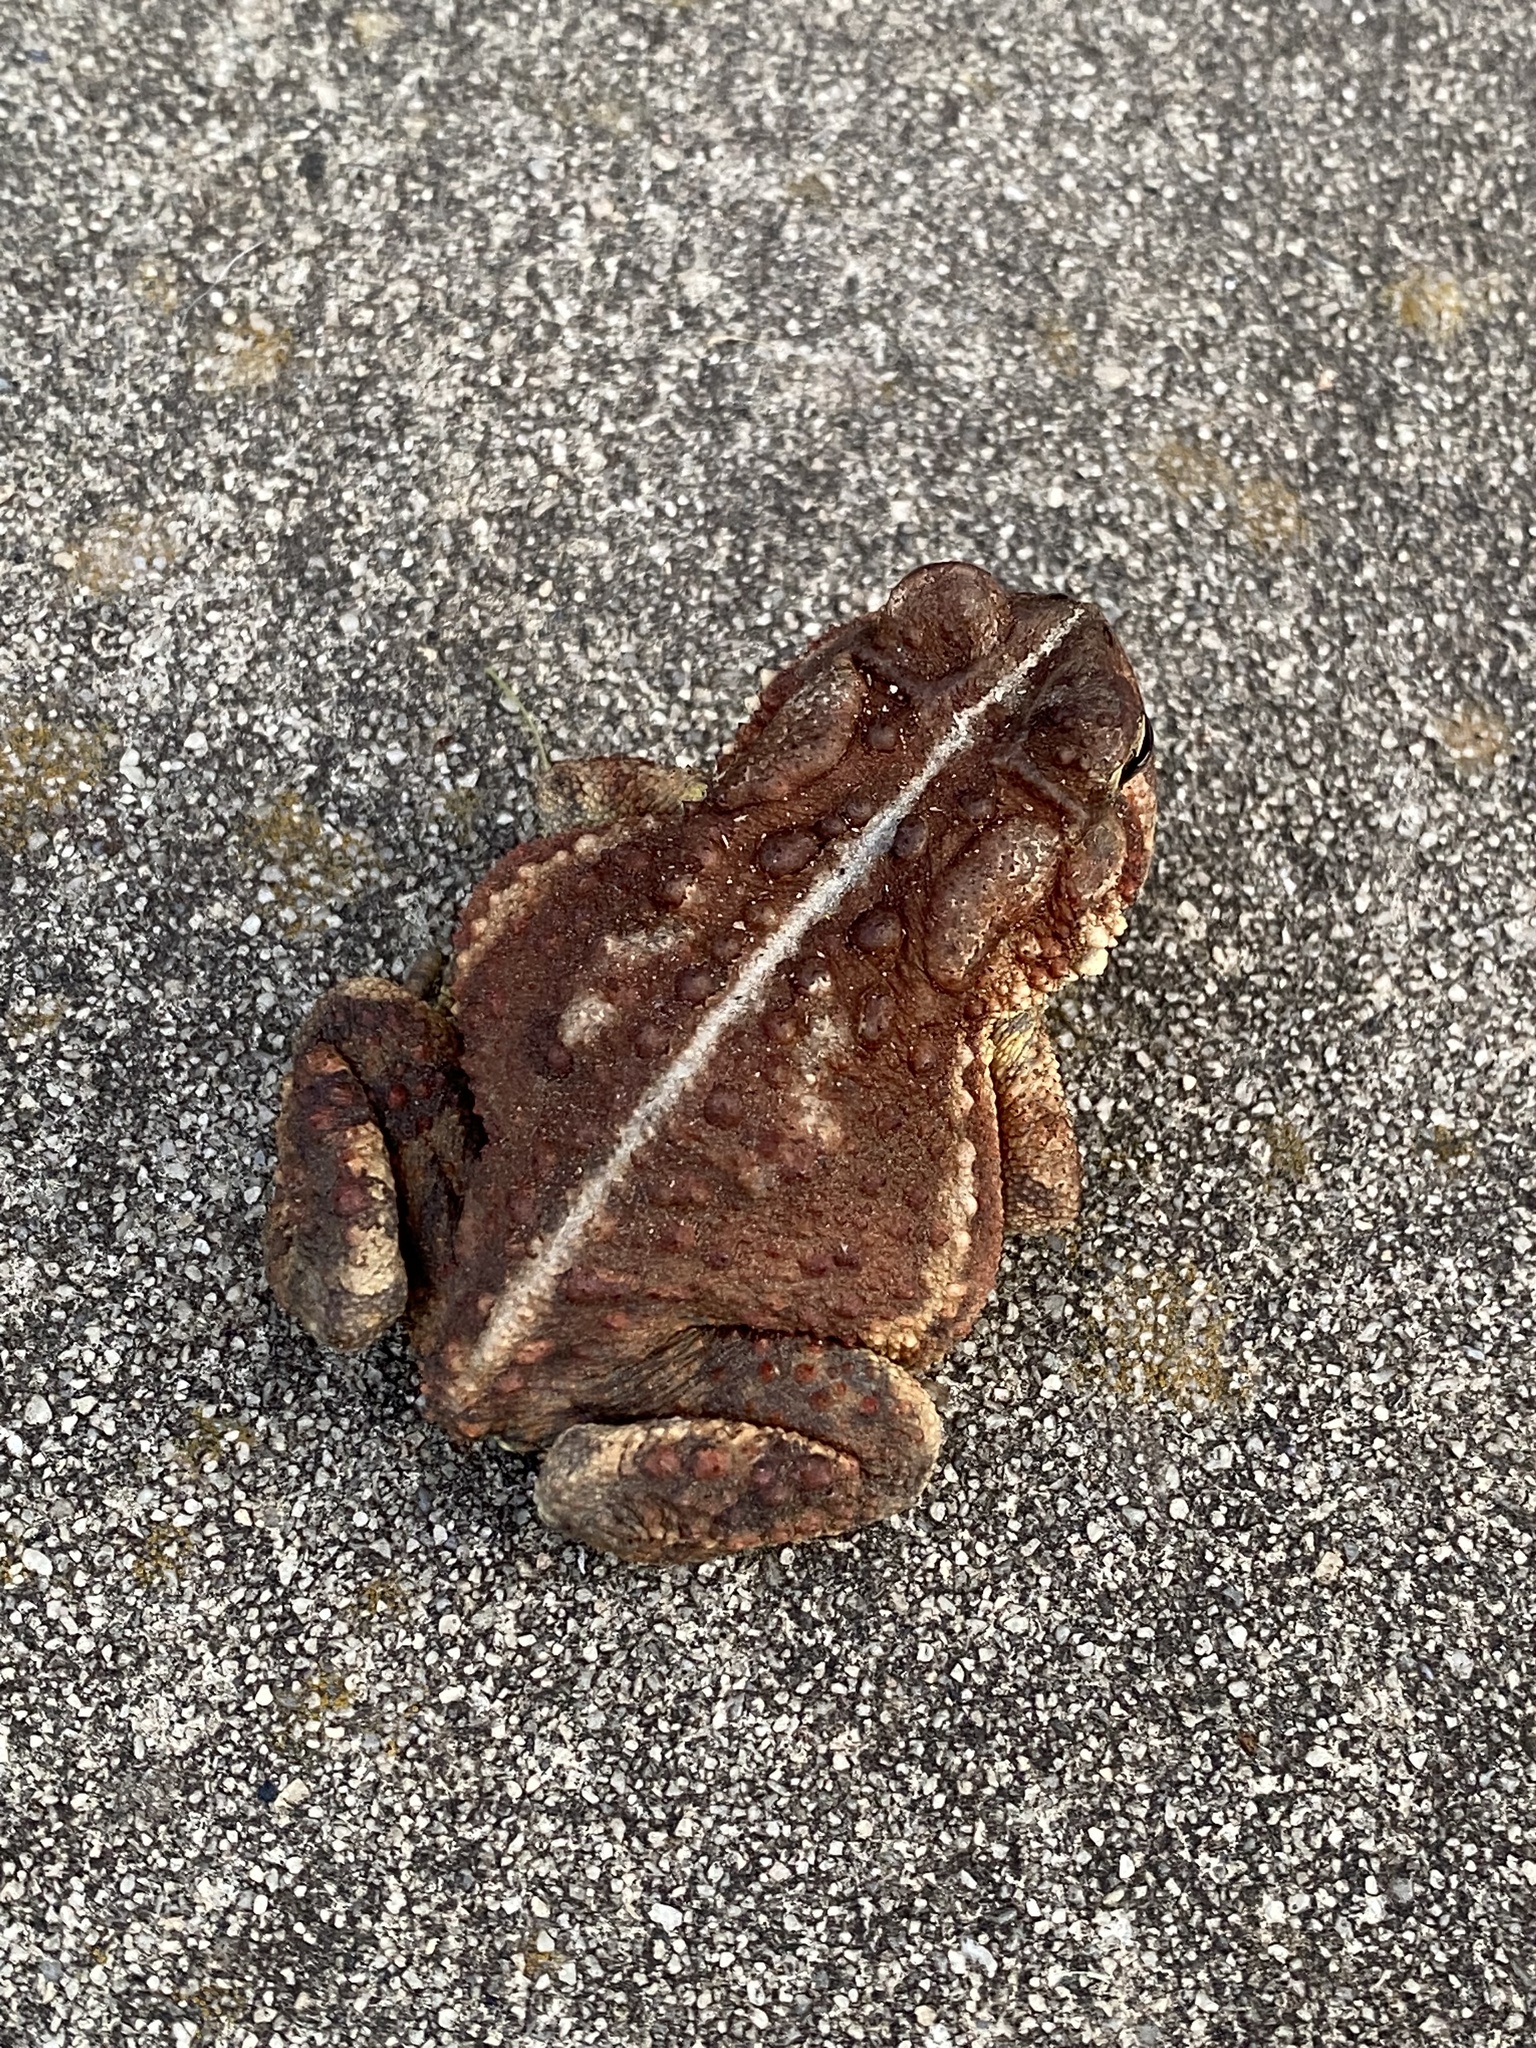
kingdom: Animalia
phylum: Chordata
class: Amphibia
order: Anura
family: Bufonidae
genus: Anaxyrus
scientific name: Anaxyrus americanus
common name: American toad
